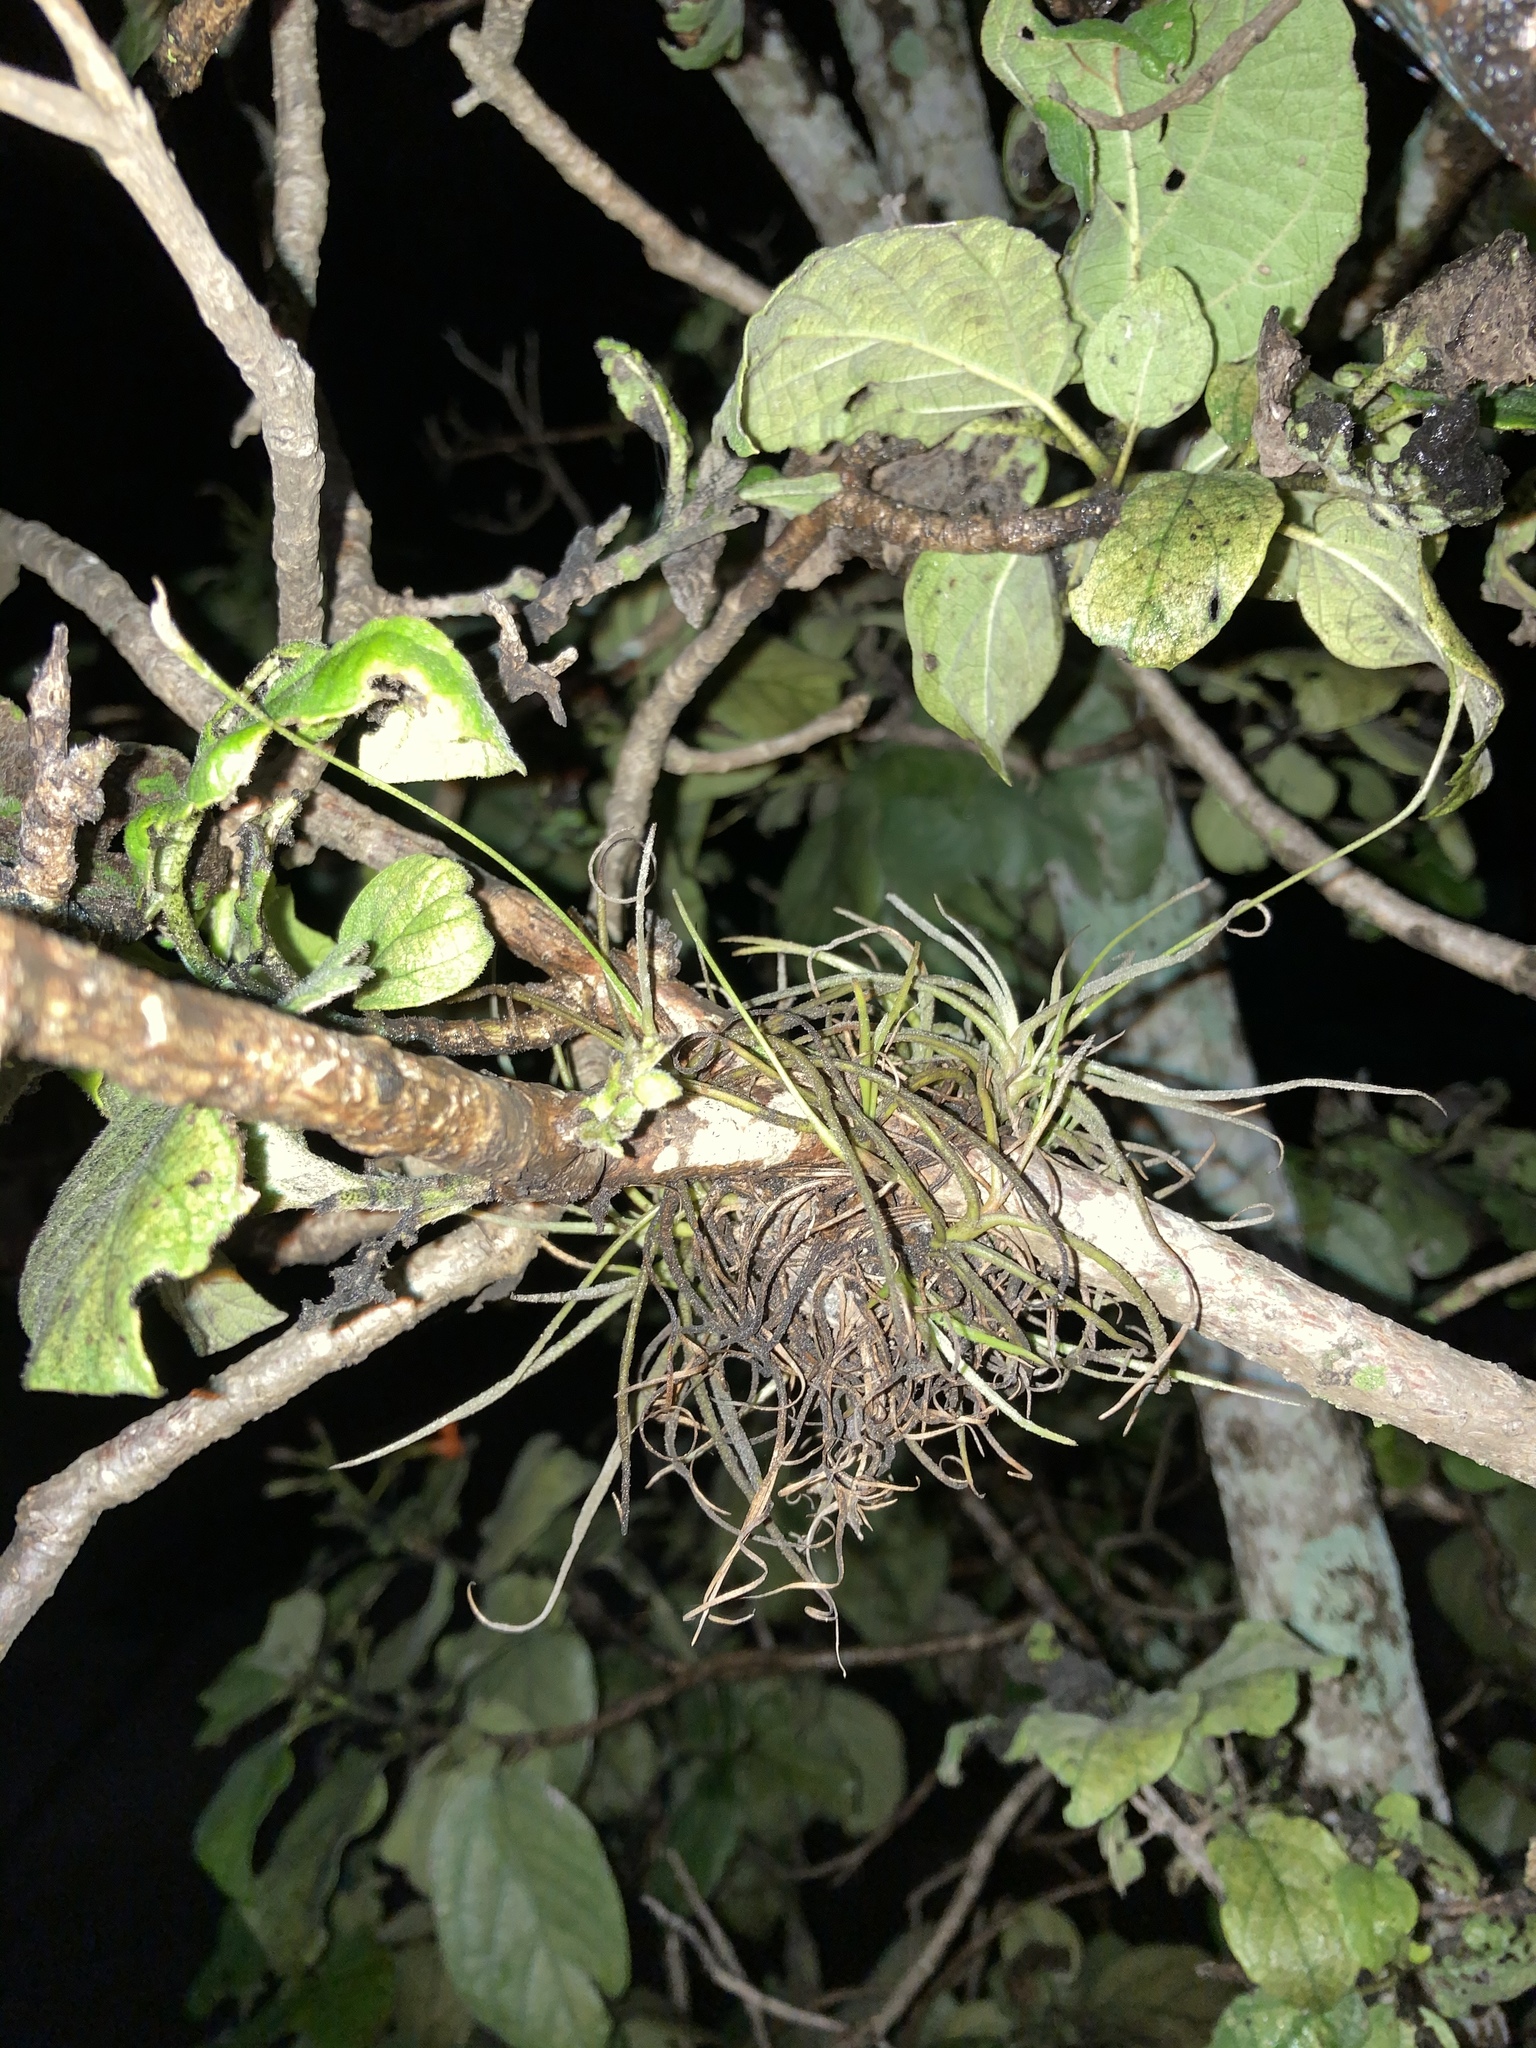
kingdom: Plantae
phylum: Tracheophyta
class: Liliopsida
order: Poales
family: Bromeliaceae
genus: Tillandsia
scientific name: Tillandsia recurvata
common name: Small ballmoss
